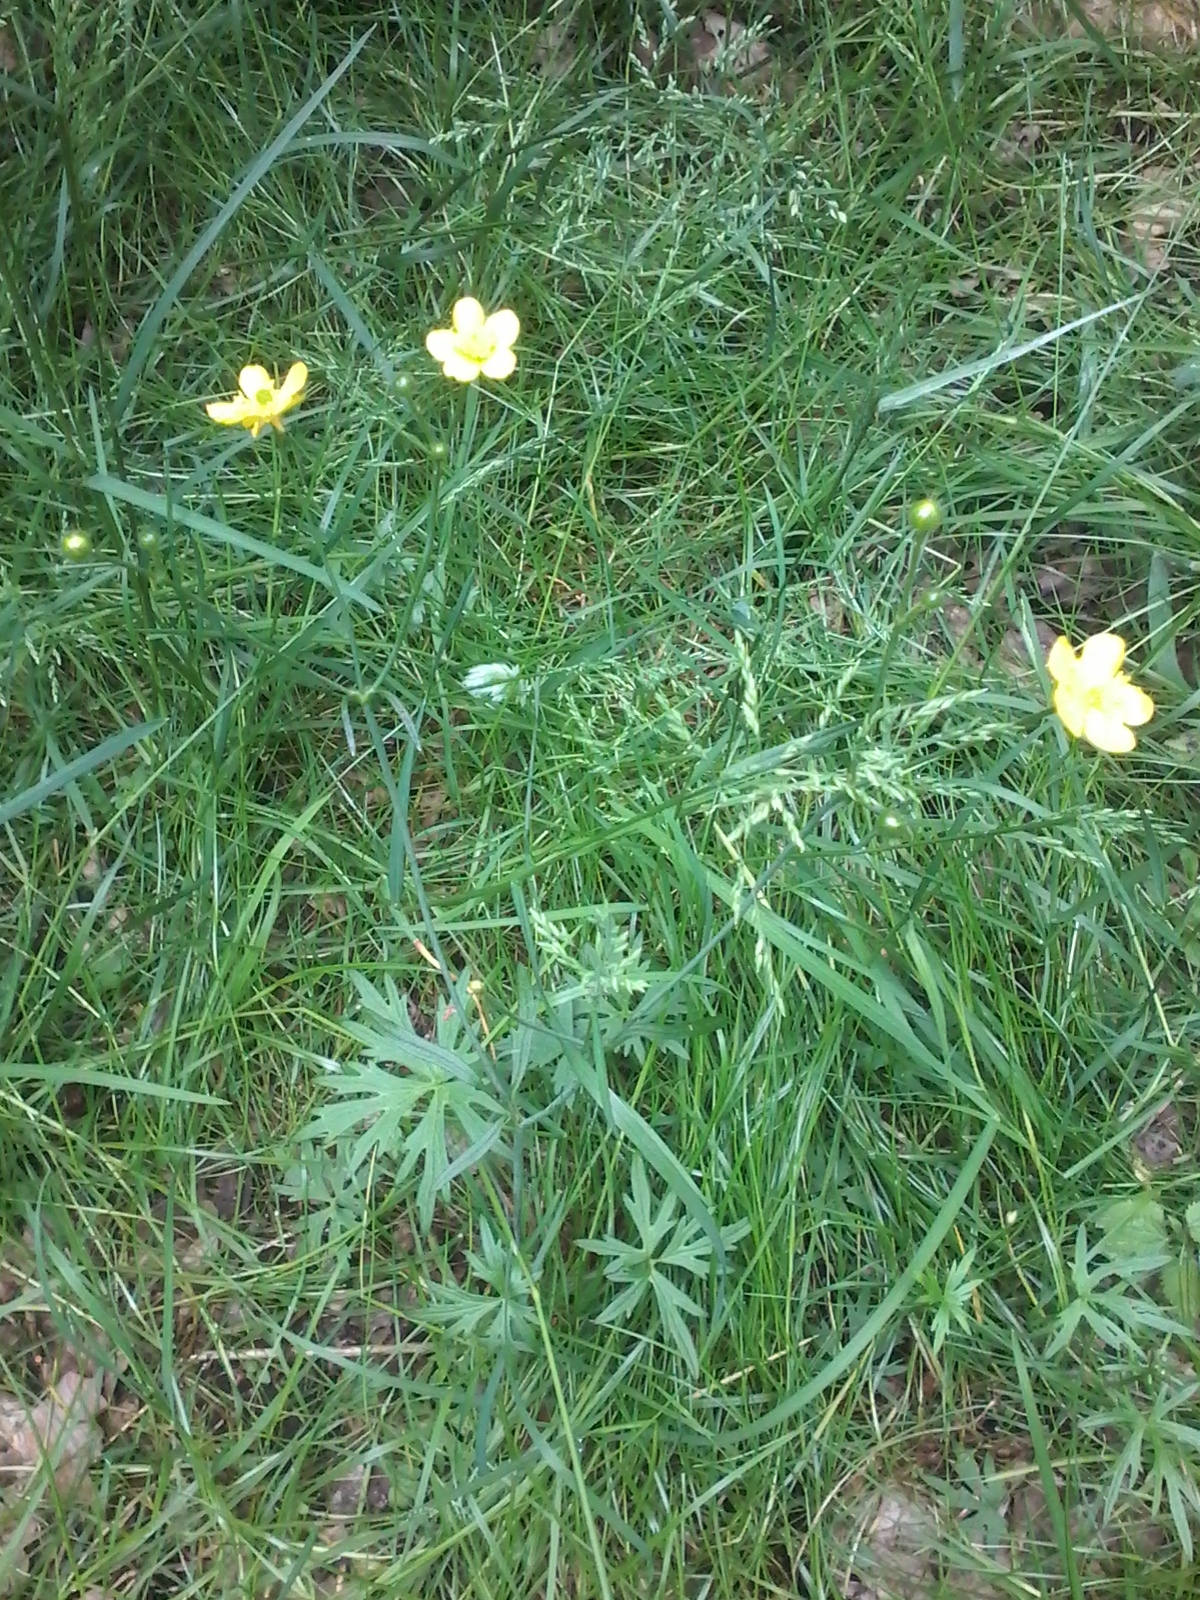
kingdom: Plantae
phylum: Tracheophyta
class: Magnoliopsida
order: Ranunculales
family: Ranunculaceae
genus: Ranunculus
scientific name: Ranunculus acris
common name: Meadow buttercup
